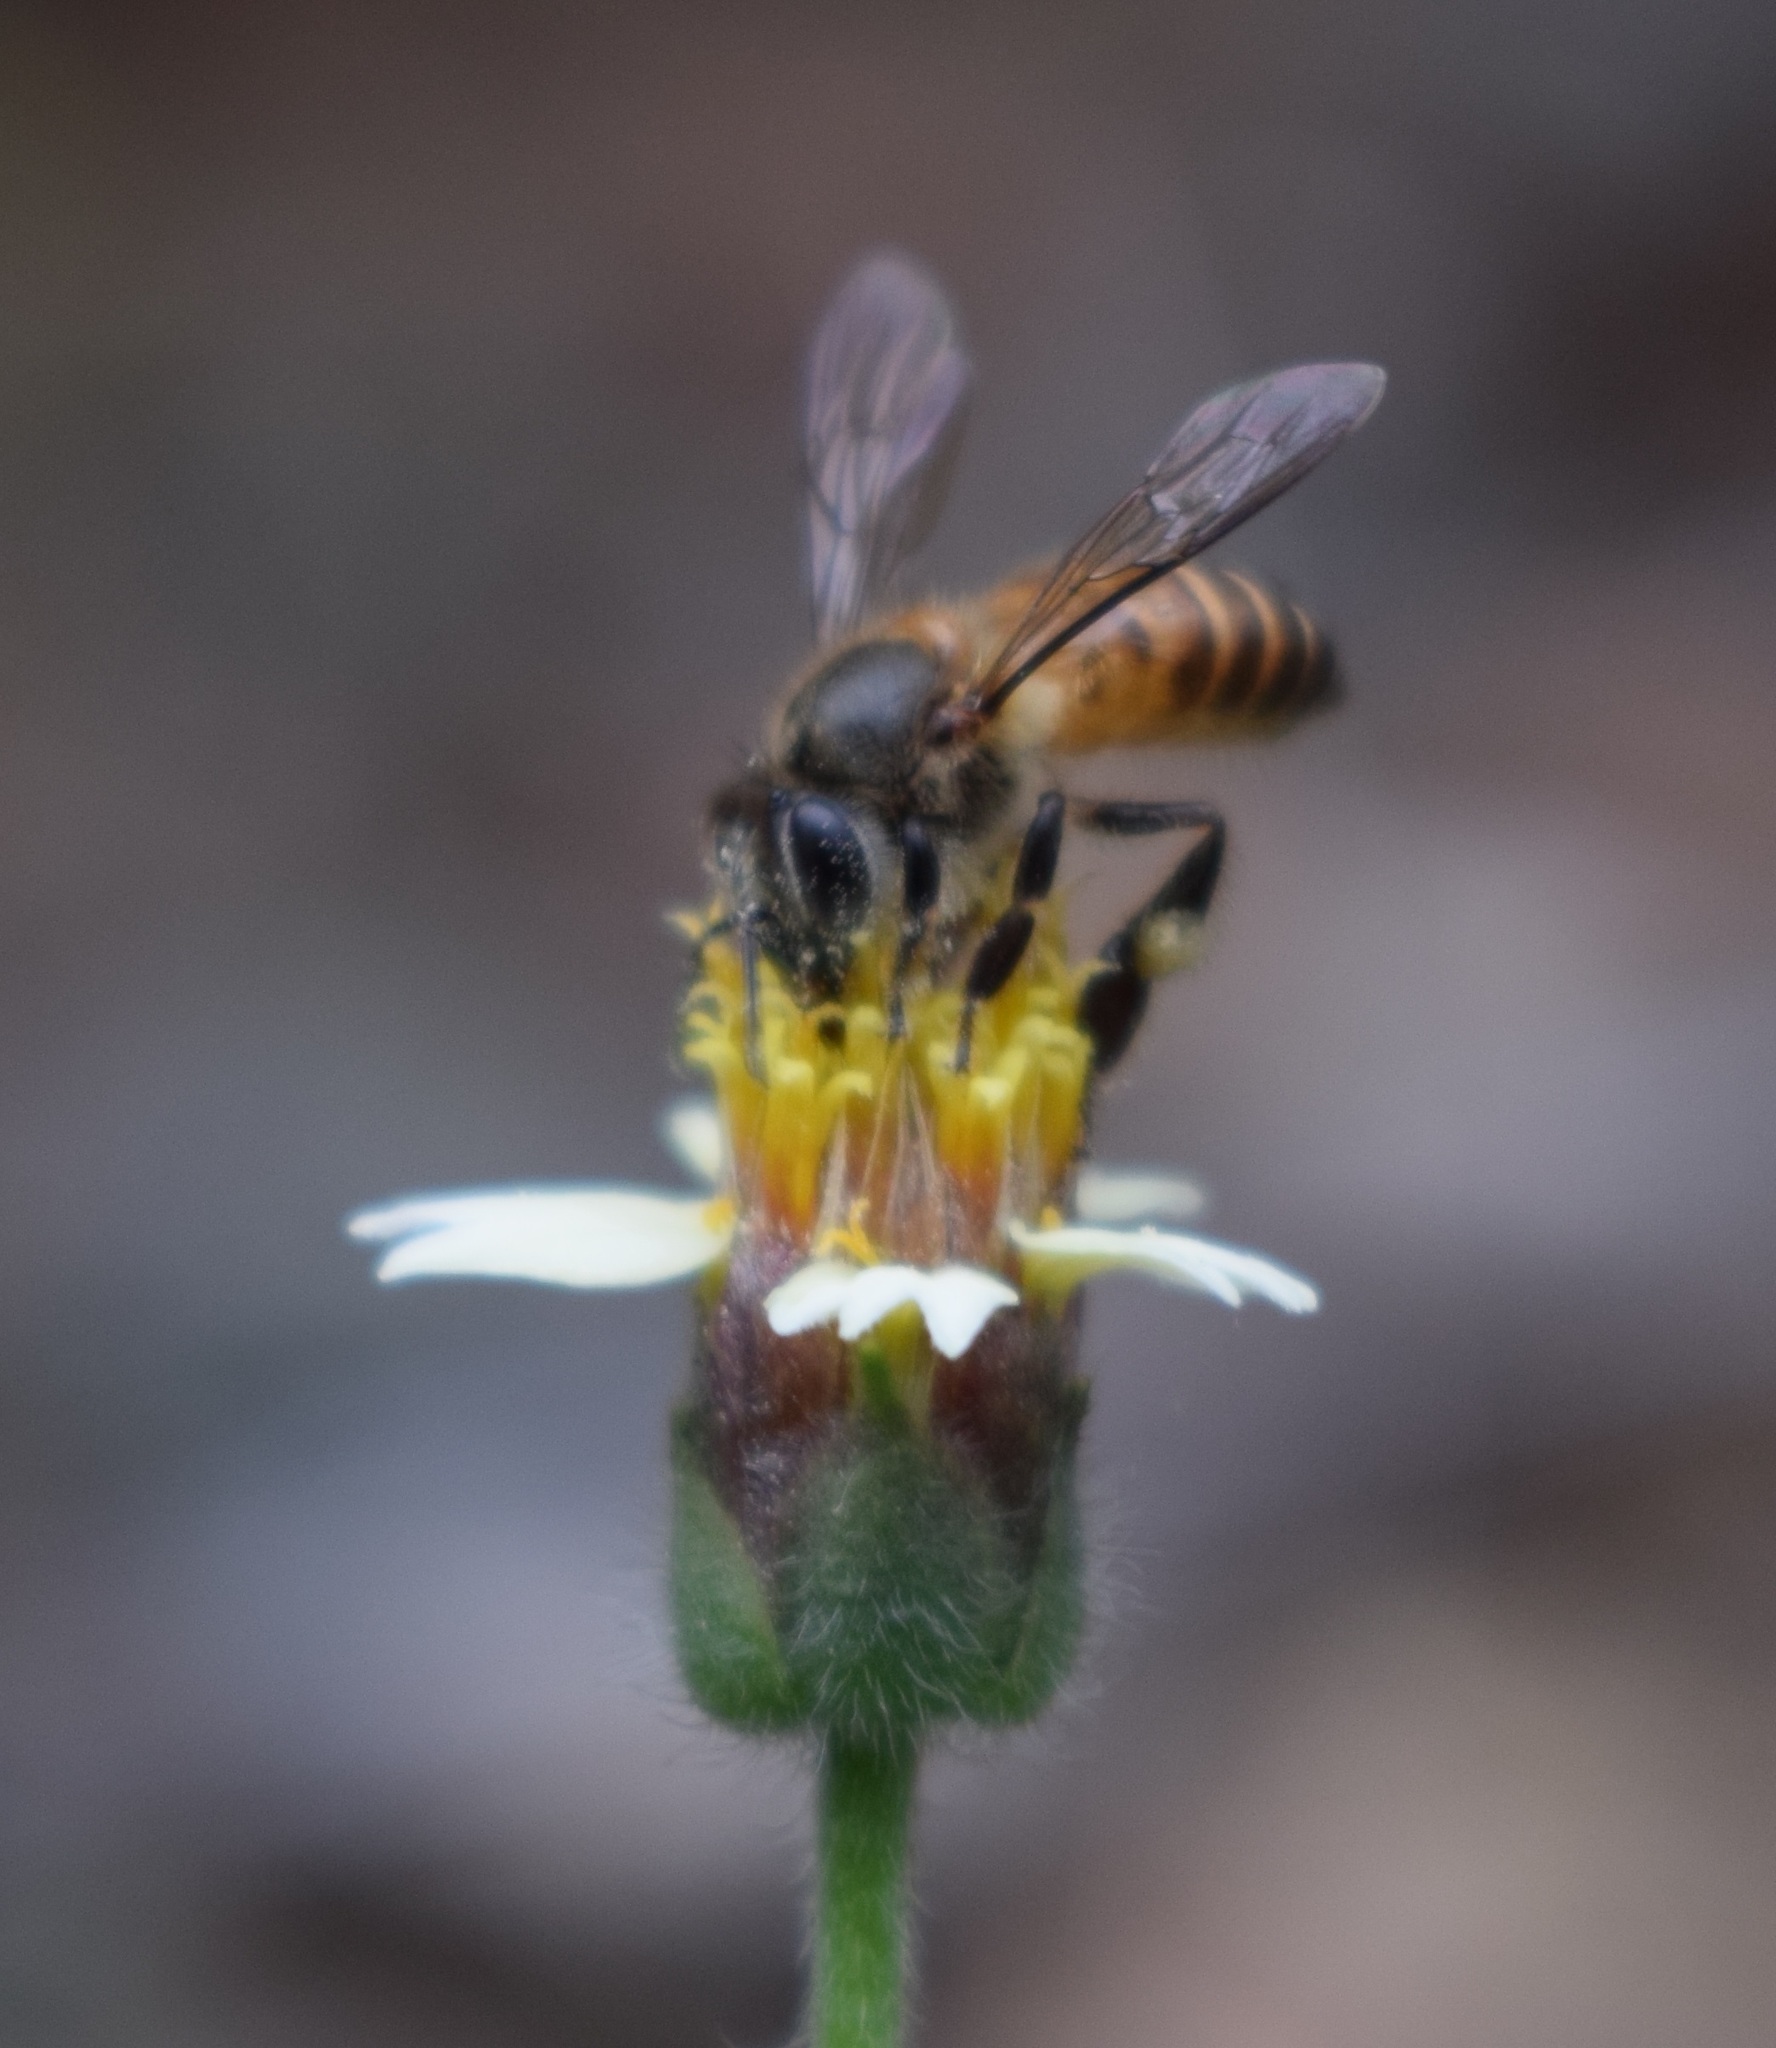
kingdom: Animalia
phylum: Arthropoda
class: Insecta
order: Hymenoptera
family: Apidae
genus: Apis
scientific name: Apis cerana
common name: Honey bee
